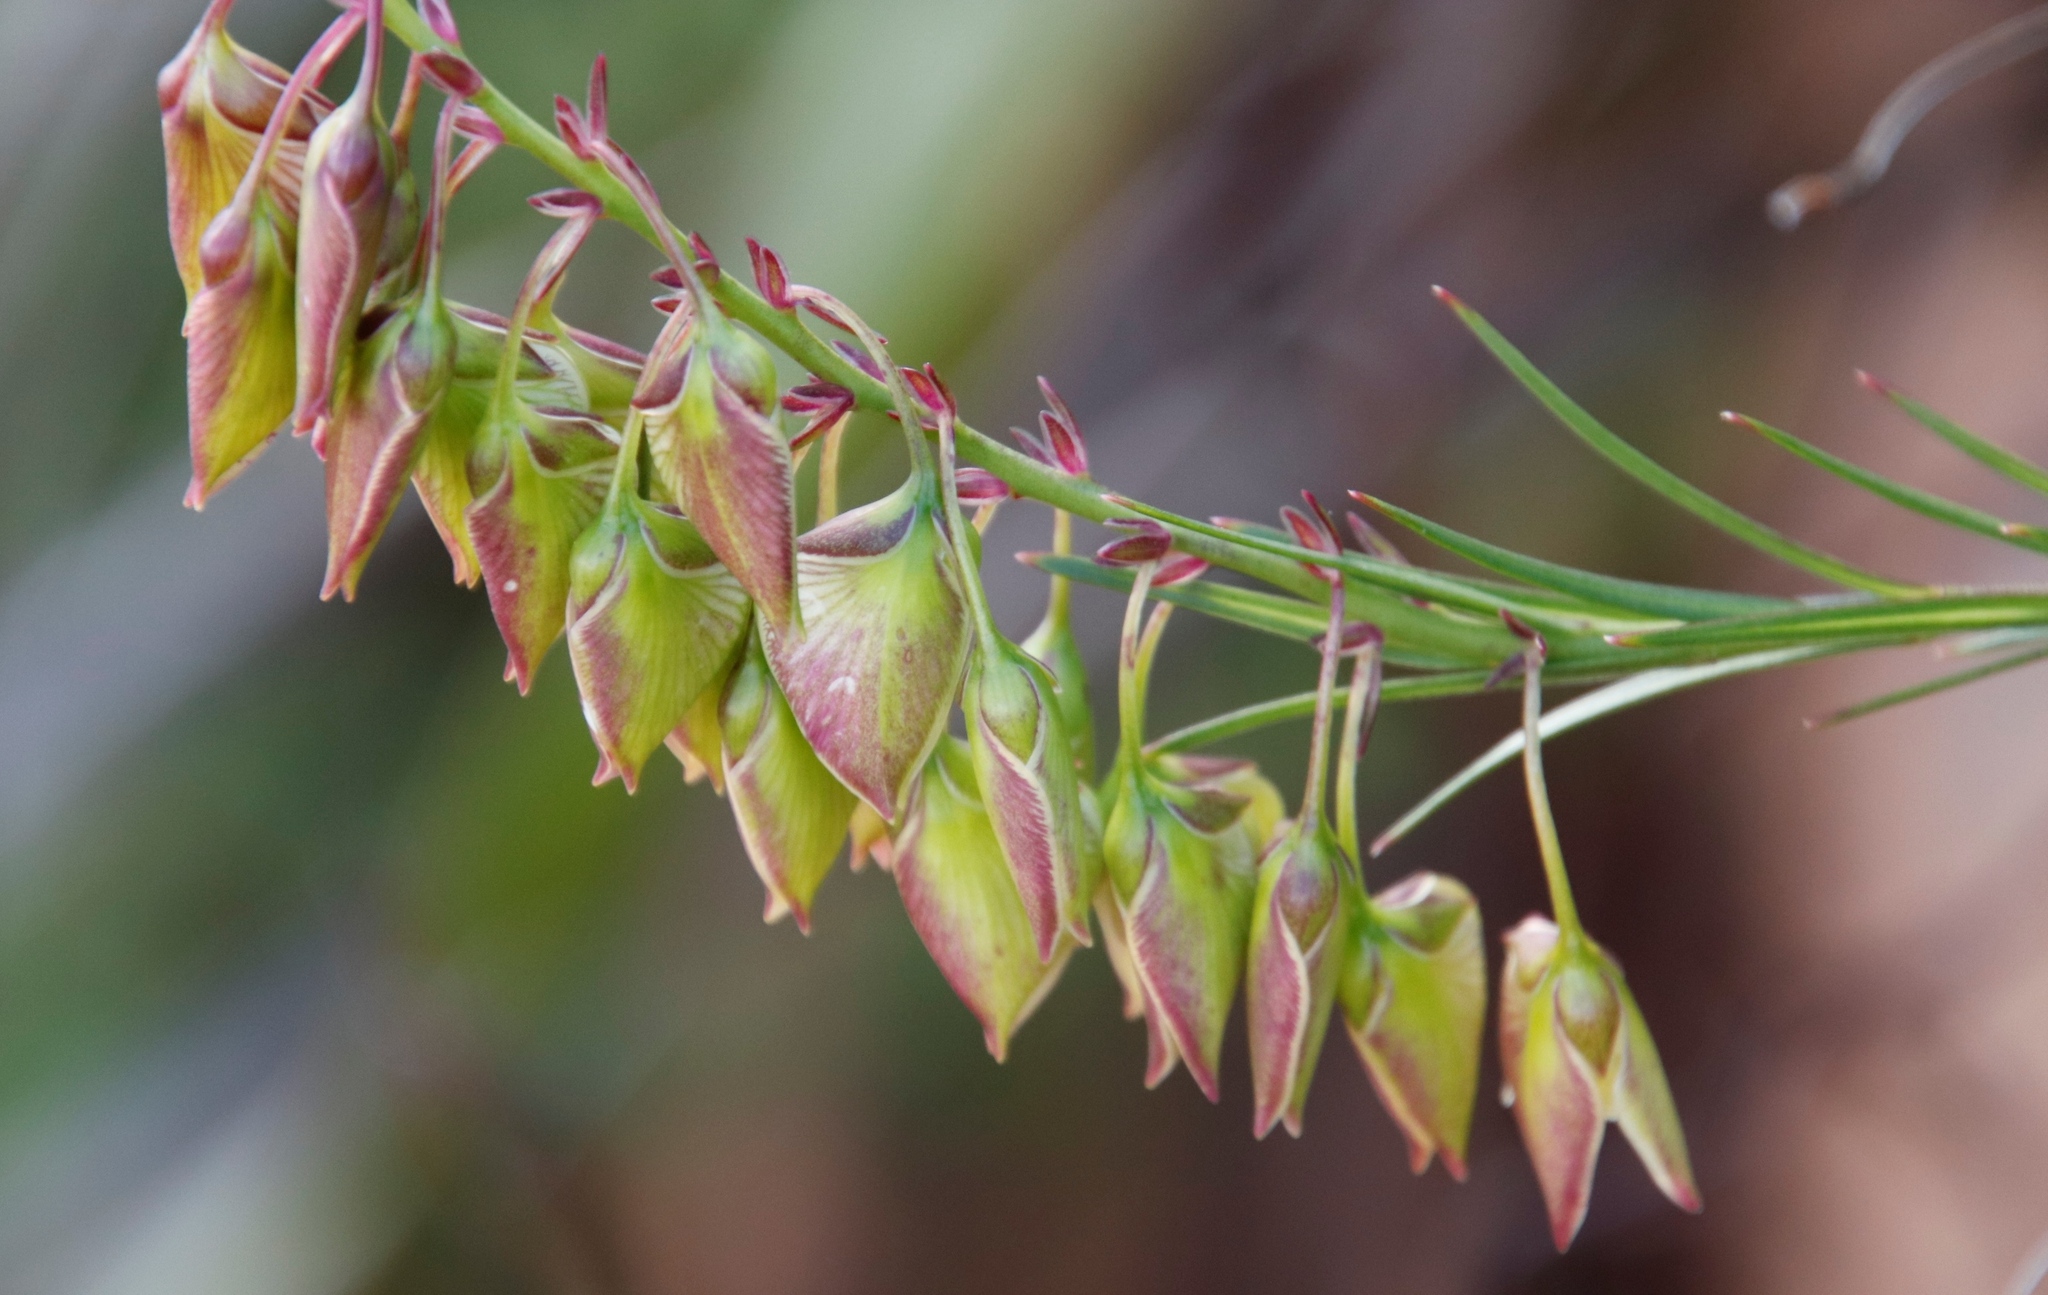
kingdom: Plantae
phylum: Tracheophyta
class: Magnoliopsida
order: Fabales
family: Polygalaceae
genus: Polygala
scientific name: Polygala bracteolata
